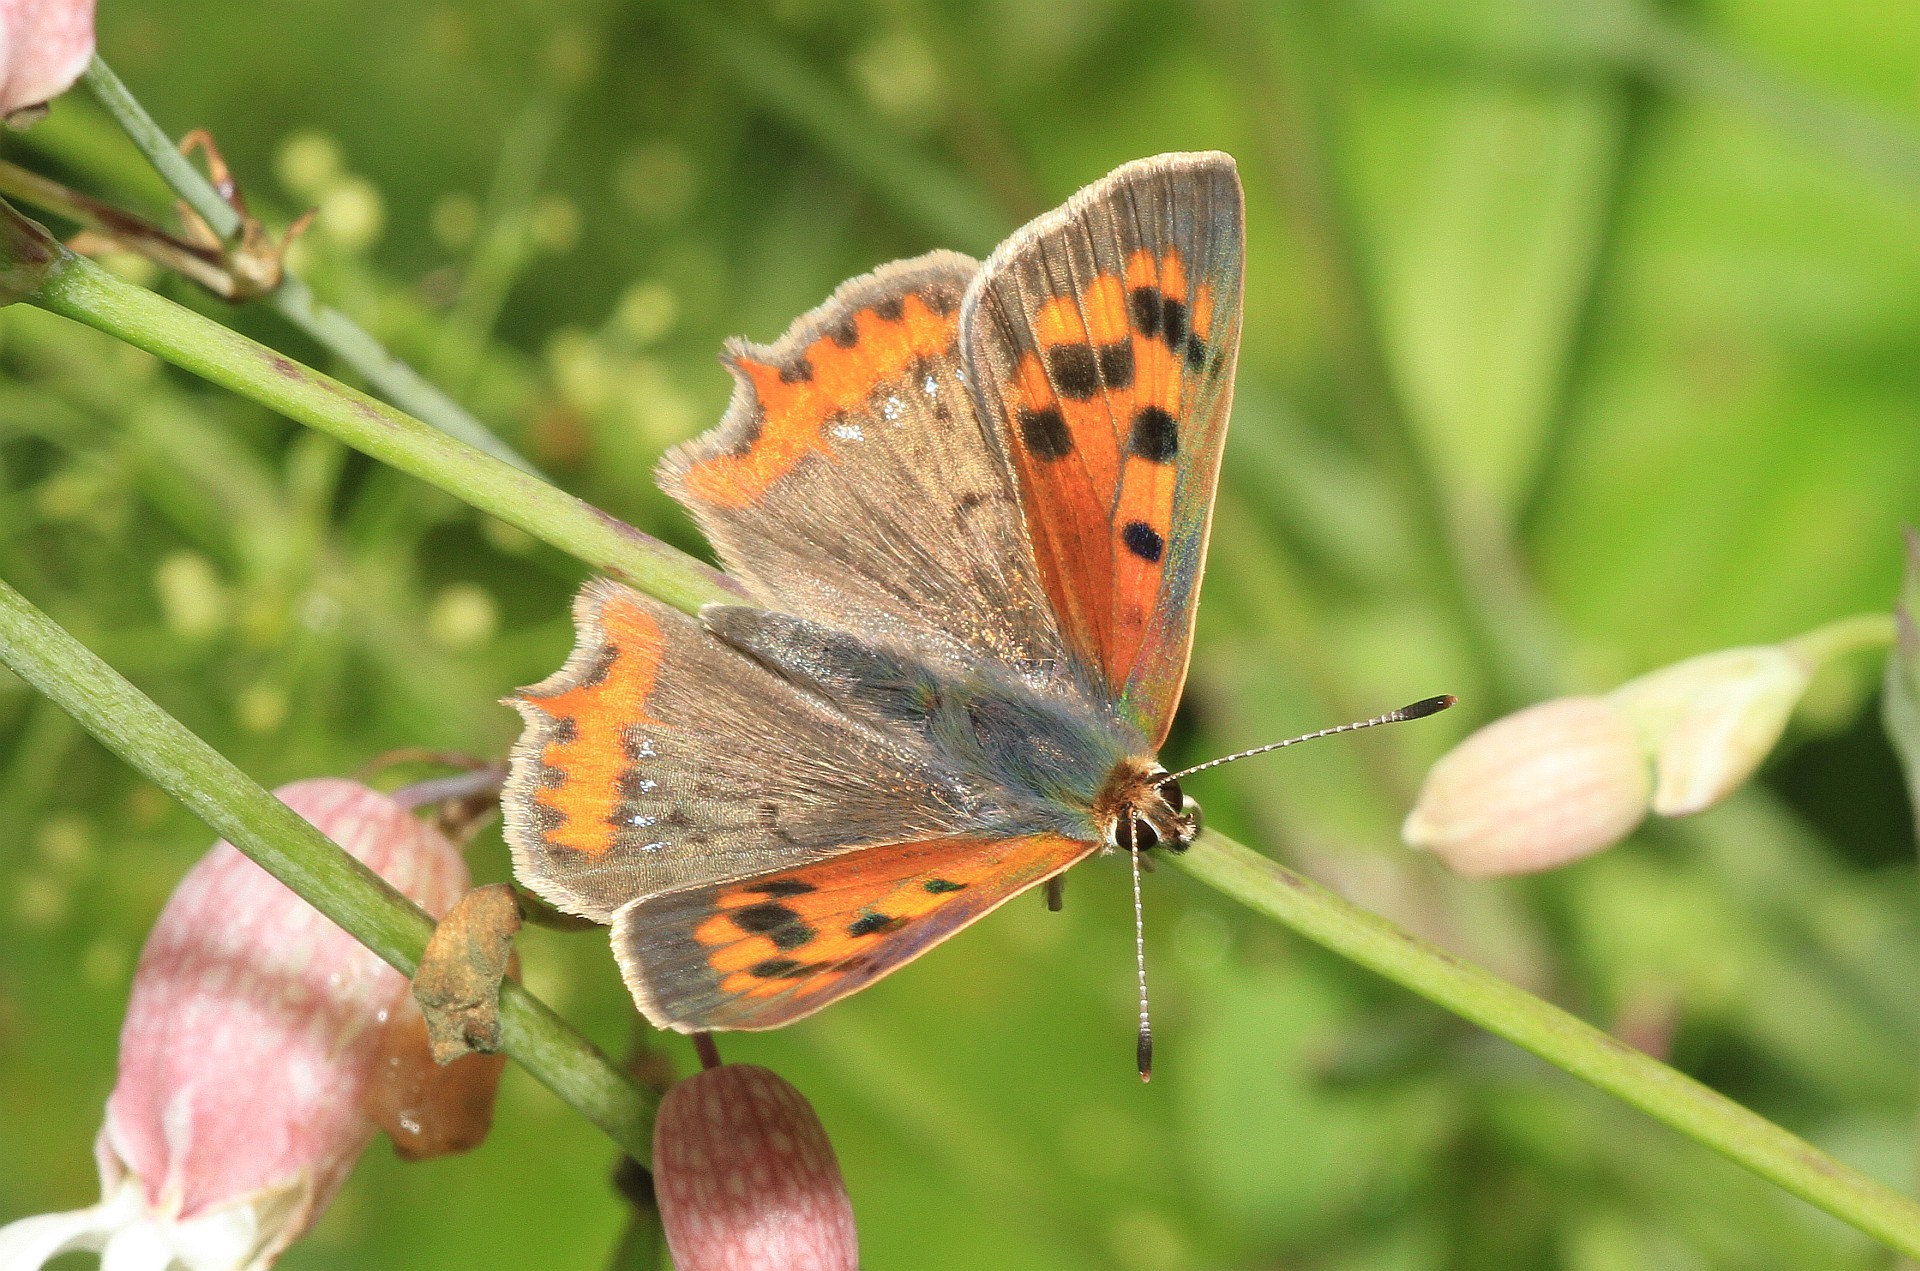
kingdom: Animalia
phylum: Arthropoda
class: Insecta
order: Lepidoptera
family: Lycaenidae
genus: Lycaena
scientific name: Lycaena phlaeas
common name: Small copper
